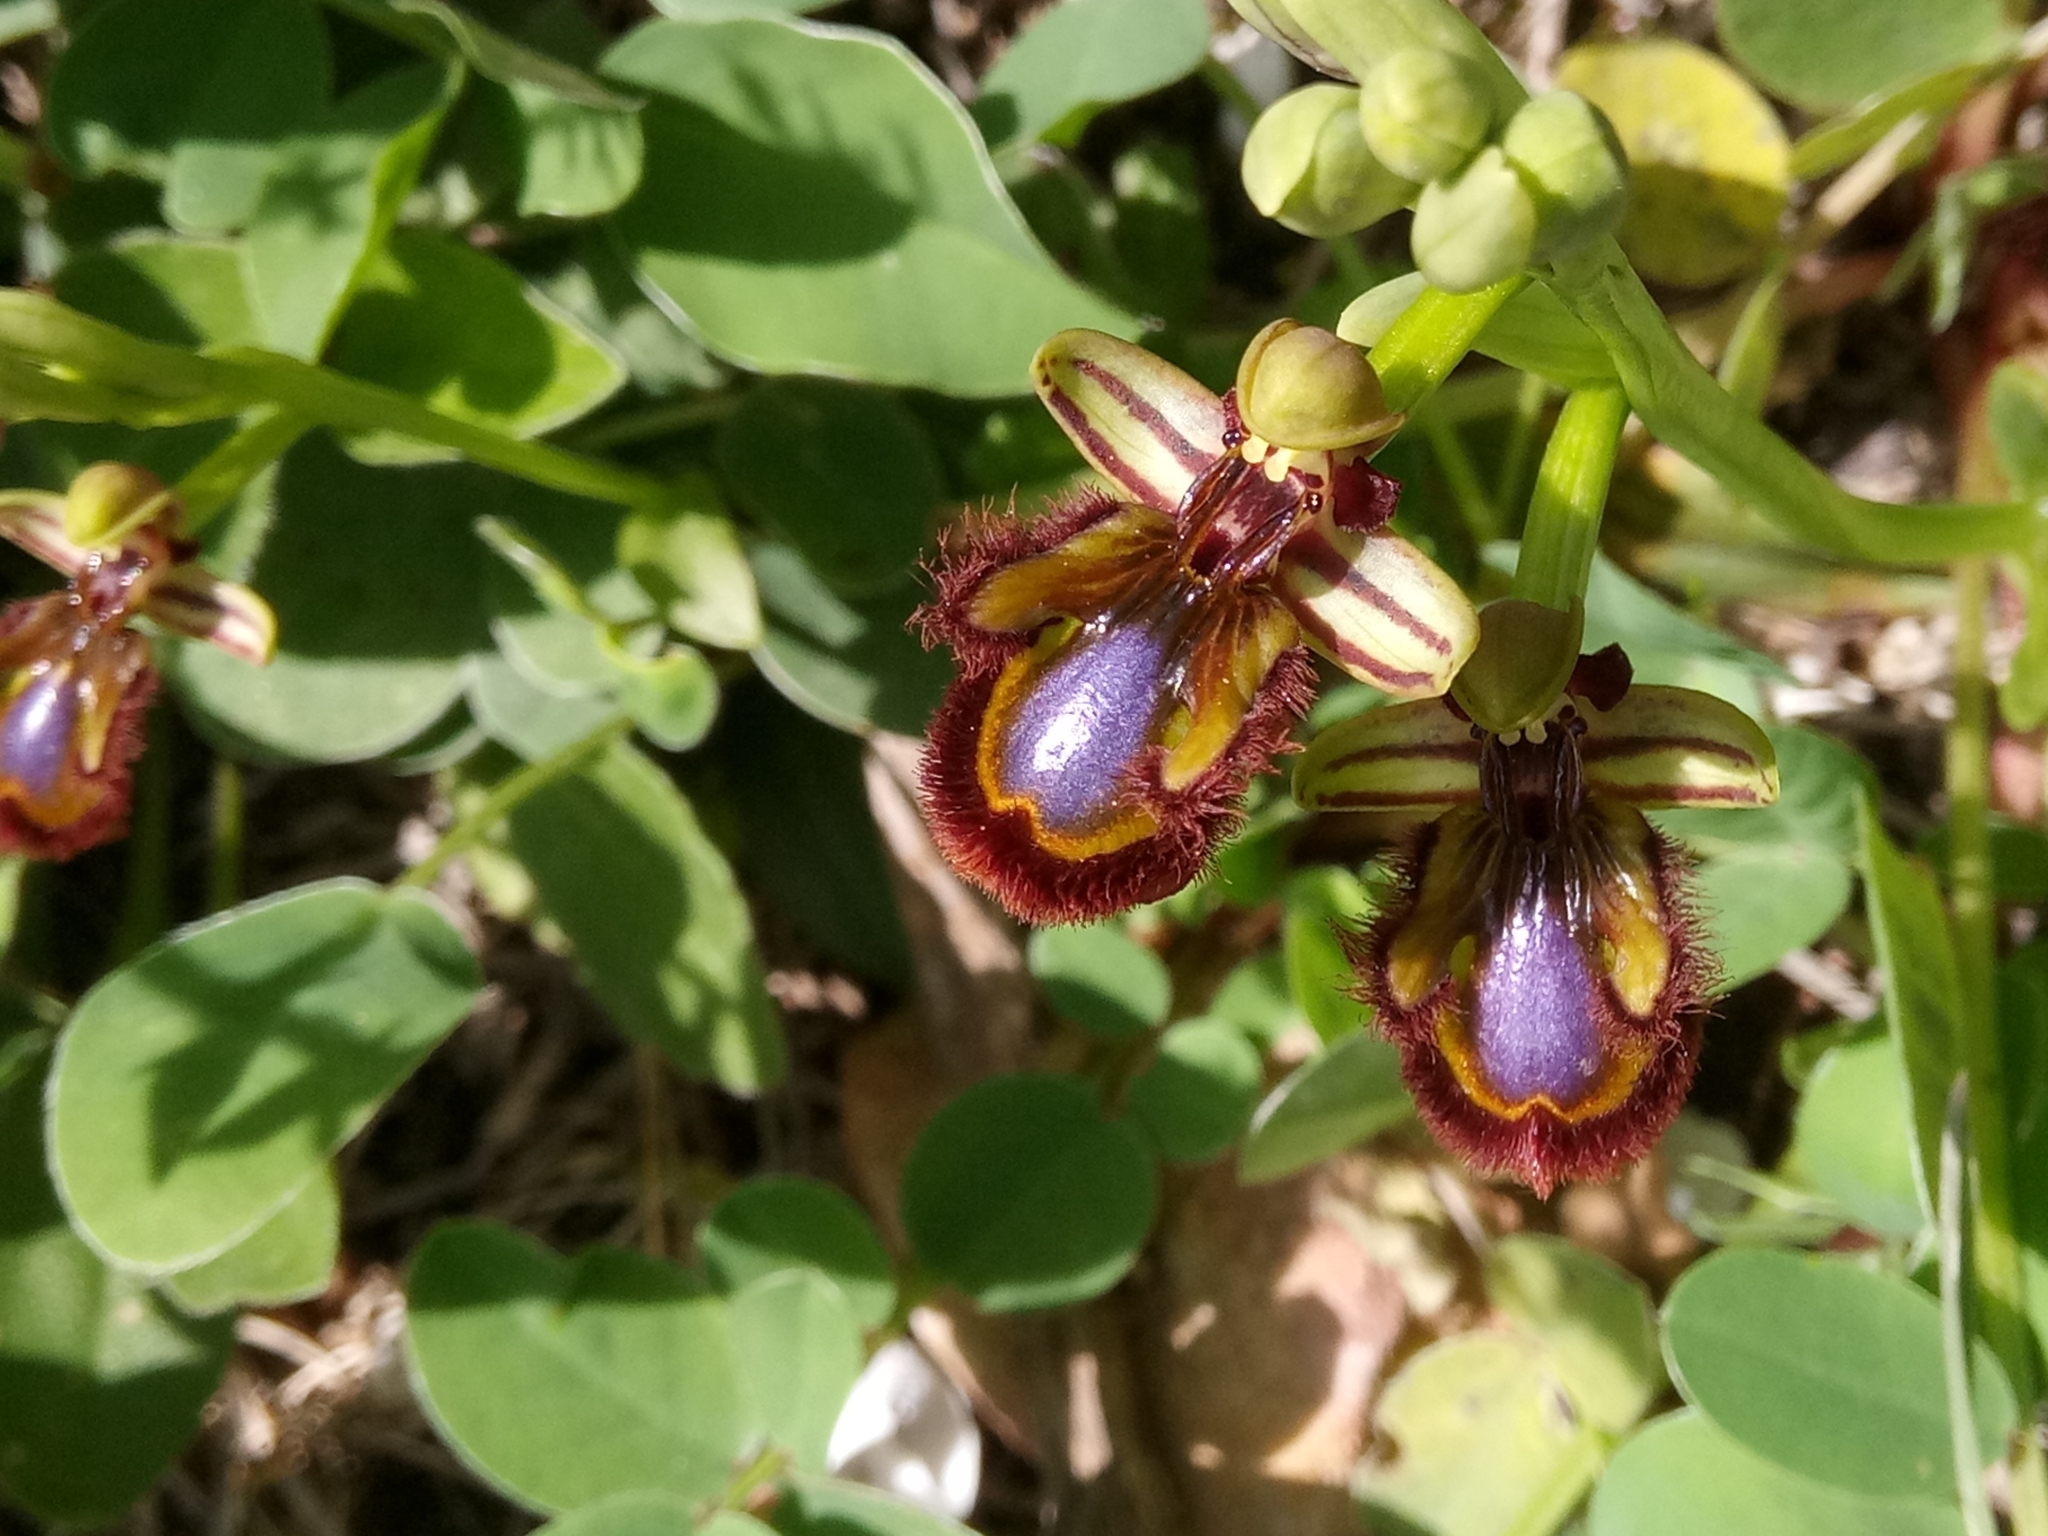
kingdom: Plantae
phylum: Tracheophyta
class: Liliopsida
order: Asparagales
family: Orchidaceae
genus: Ophrys
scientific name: Ophrys speculum
